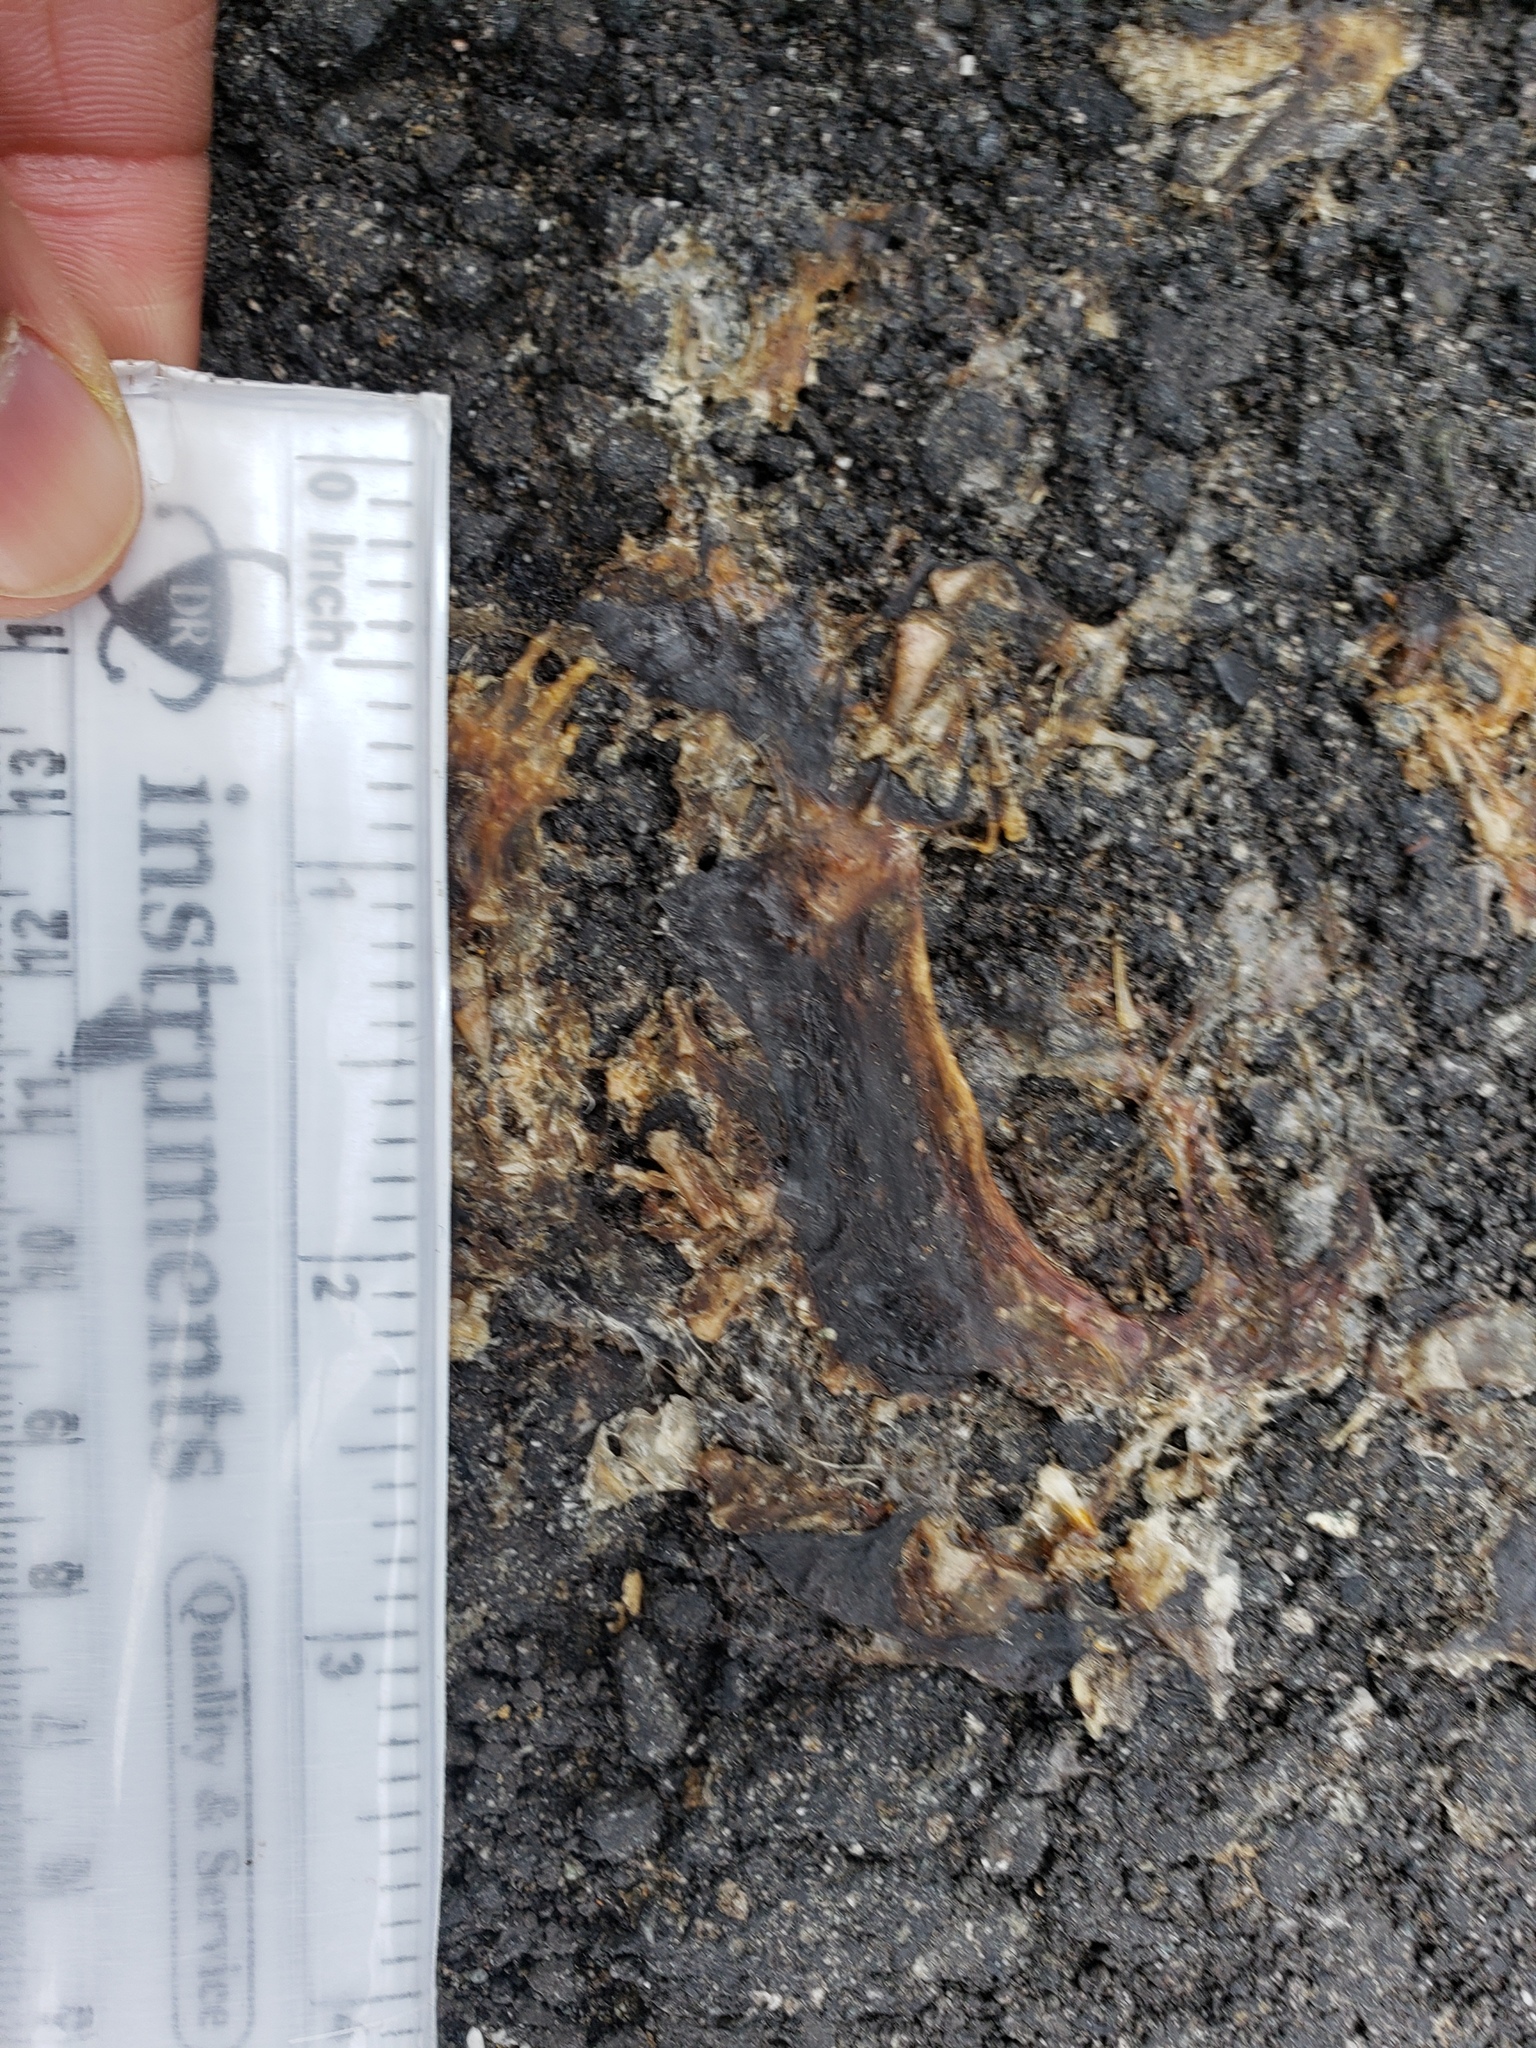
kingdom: Animalia
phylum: Chordata
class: Amphibia
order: Caudata
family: Salamandridae
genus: Taricha
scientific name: Taricha
